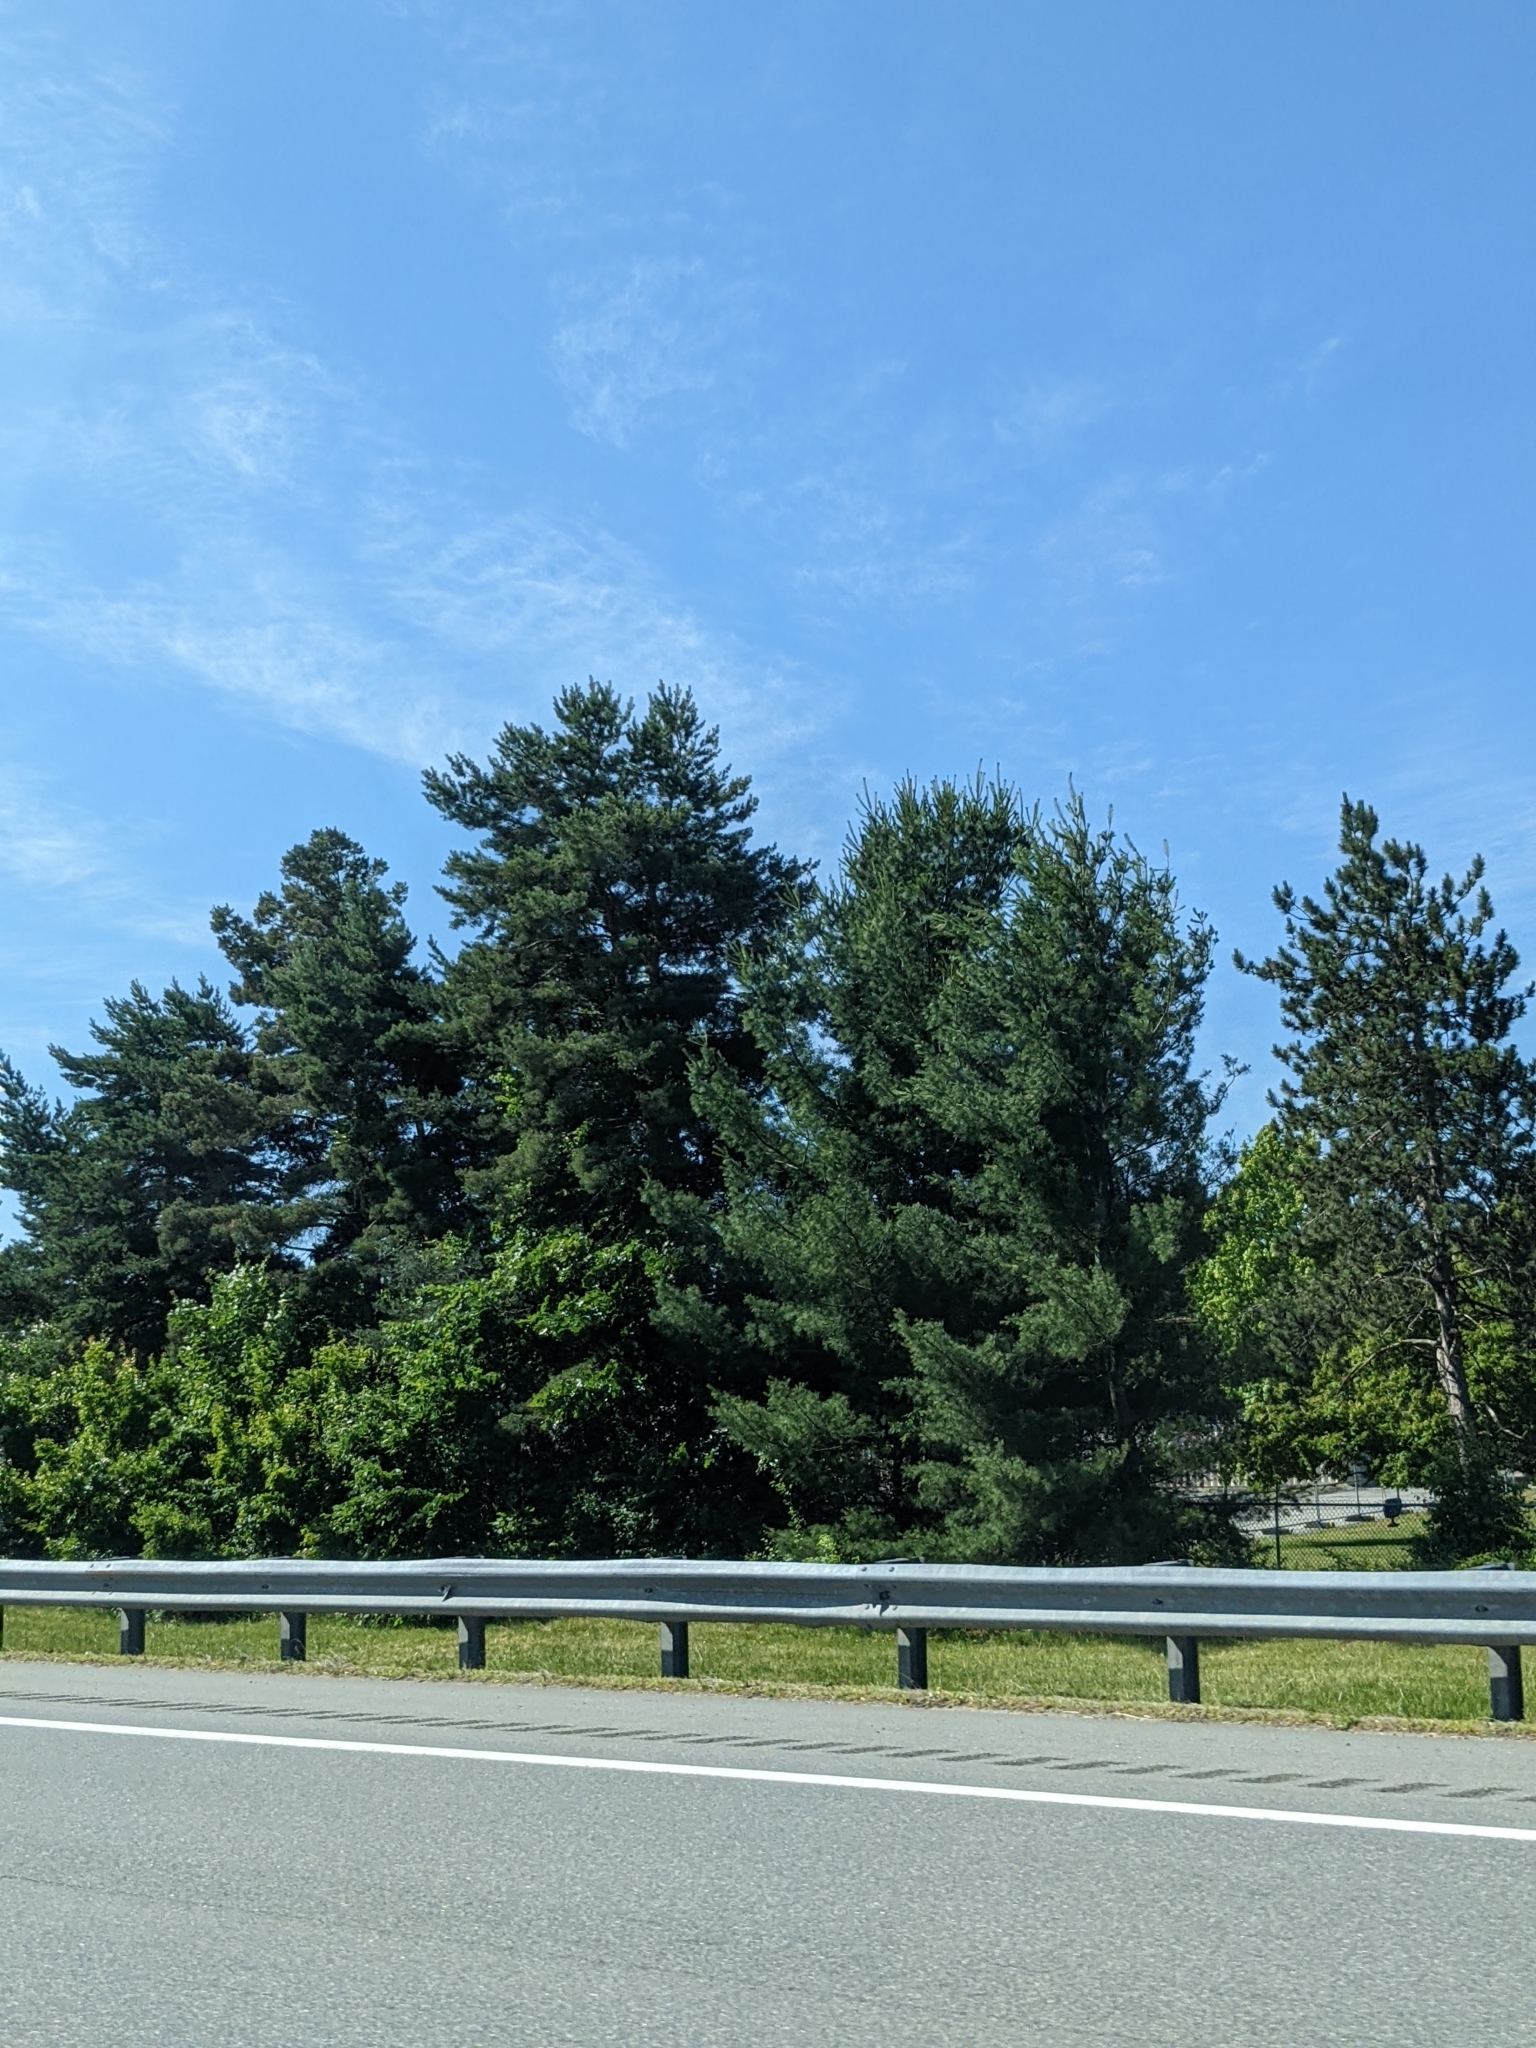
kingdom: Plantae
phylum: Tracheophyta
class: Pinopsida
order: Pinales
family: Pinaceae
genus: Pinus
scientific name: Pinus strobus
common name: Weymouth pine
